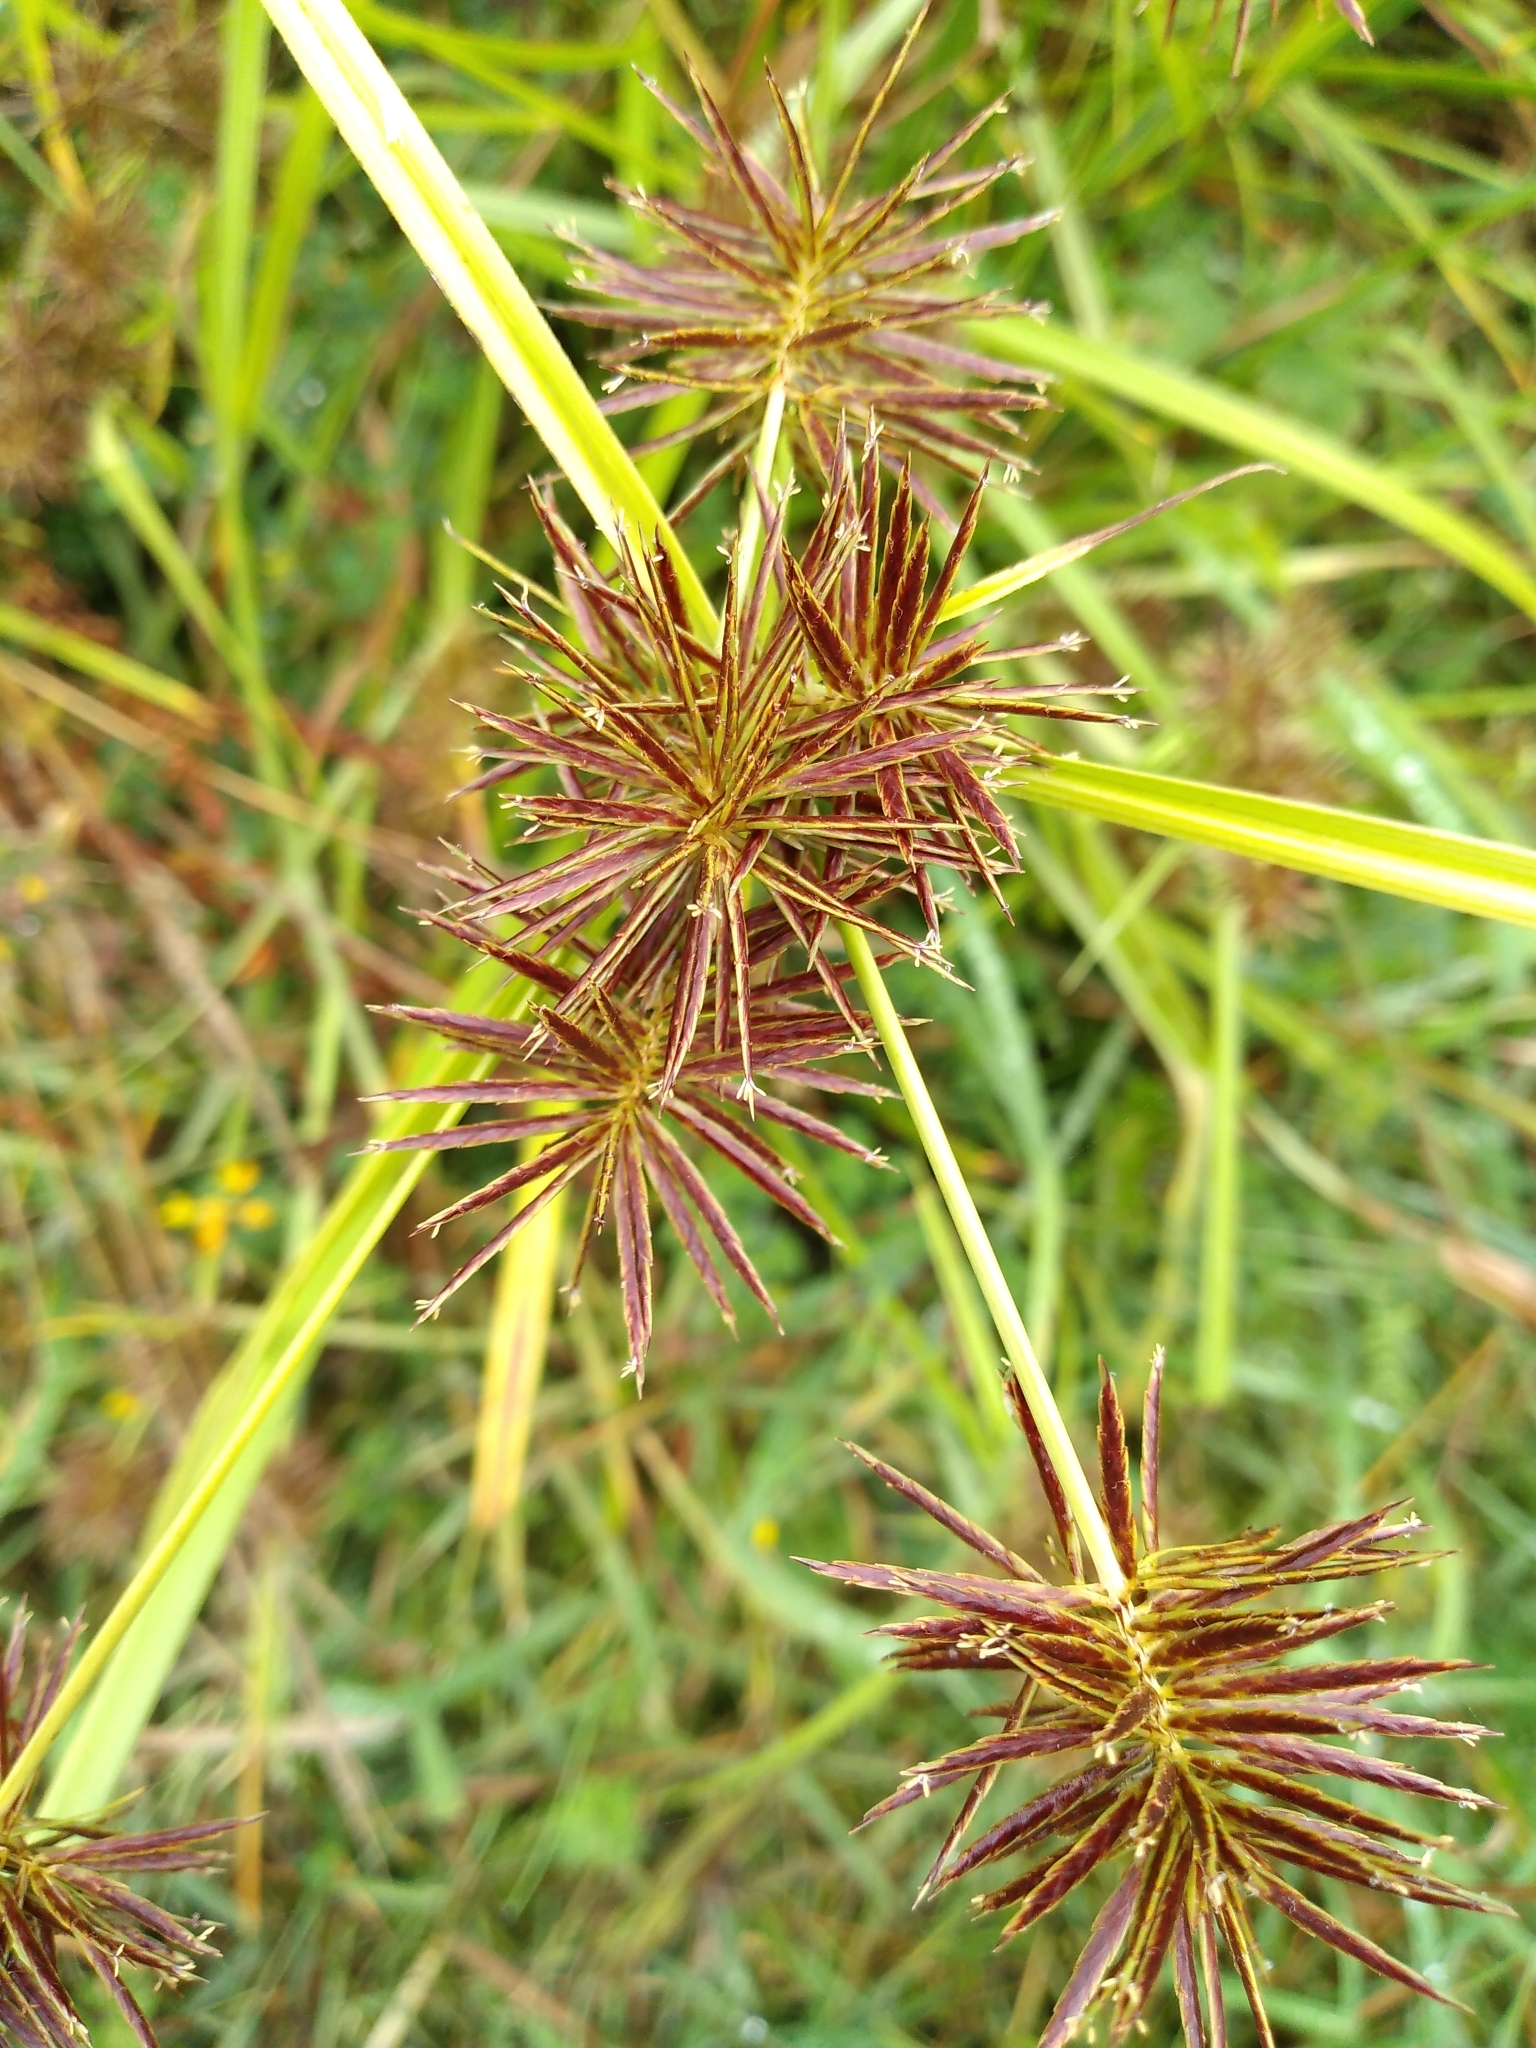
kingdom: Plantae
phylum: Tracheophyta
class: Liliopsida
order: Poales
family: Cyperaceae
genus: Cyperus
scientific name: Cyperus congestus
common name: Dense flat sedge
